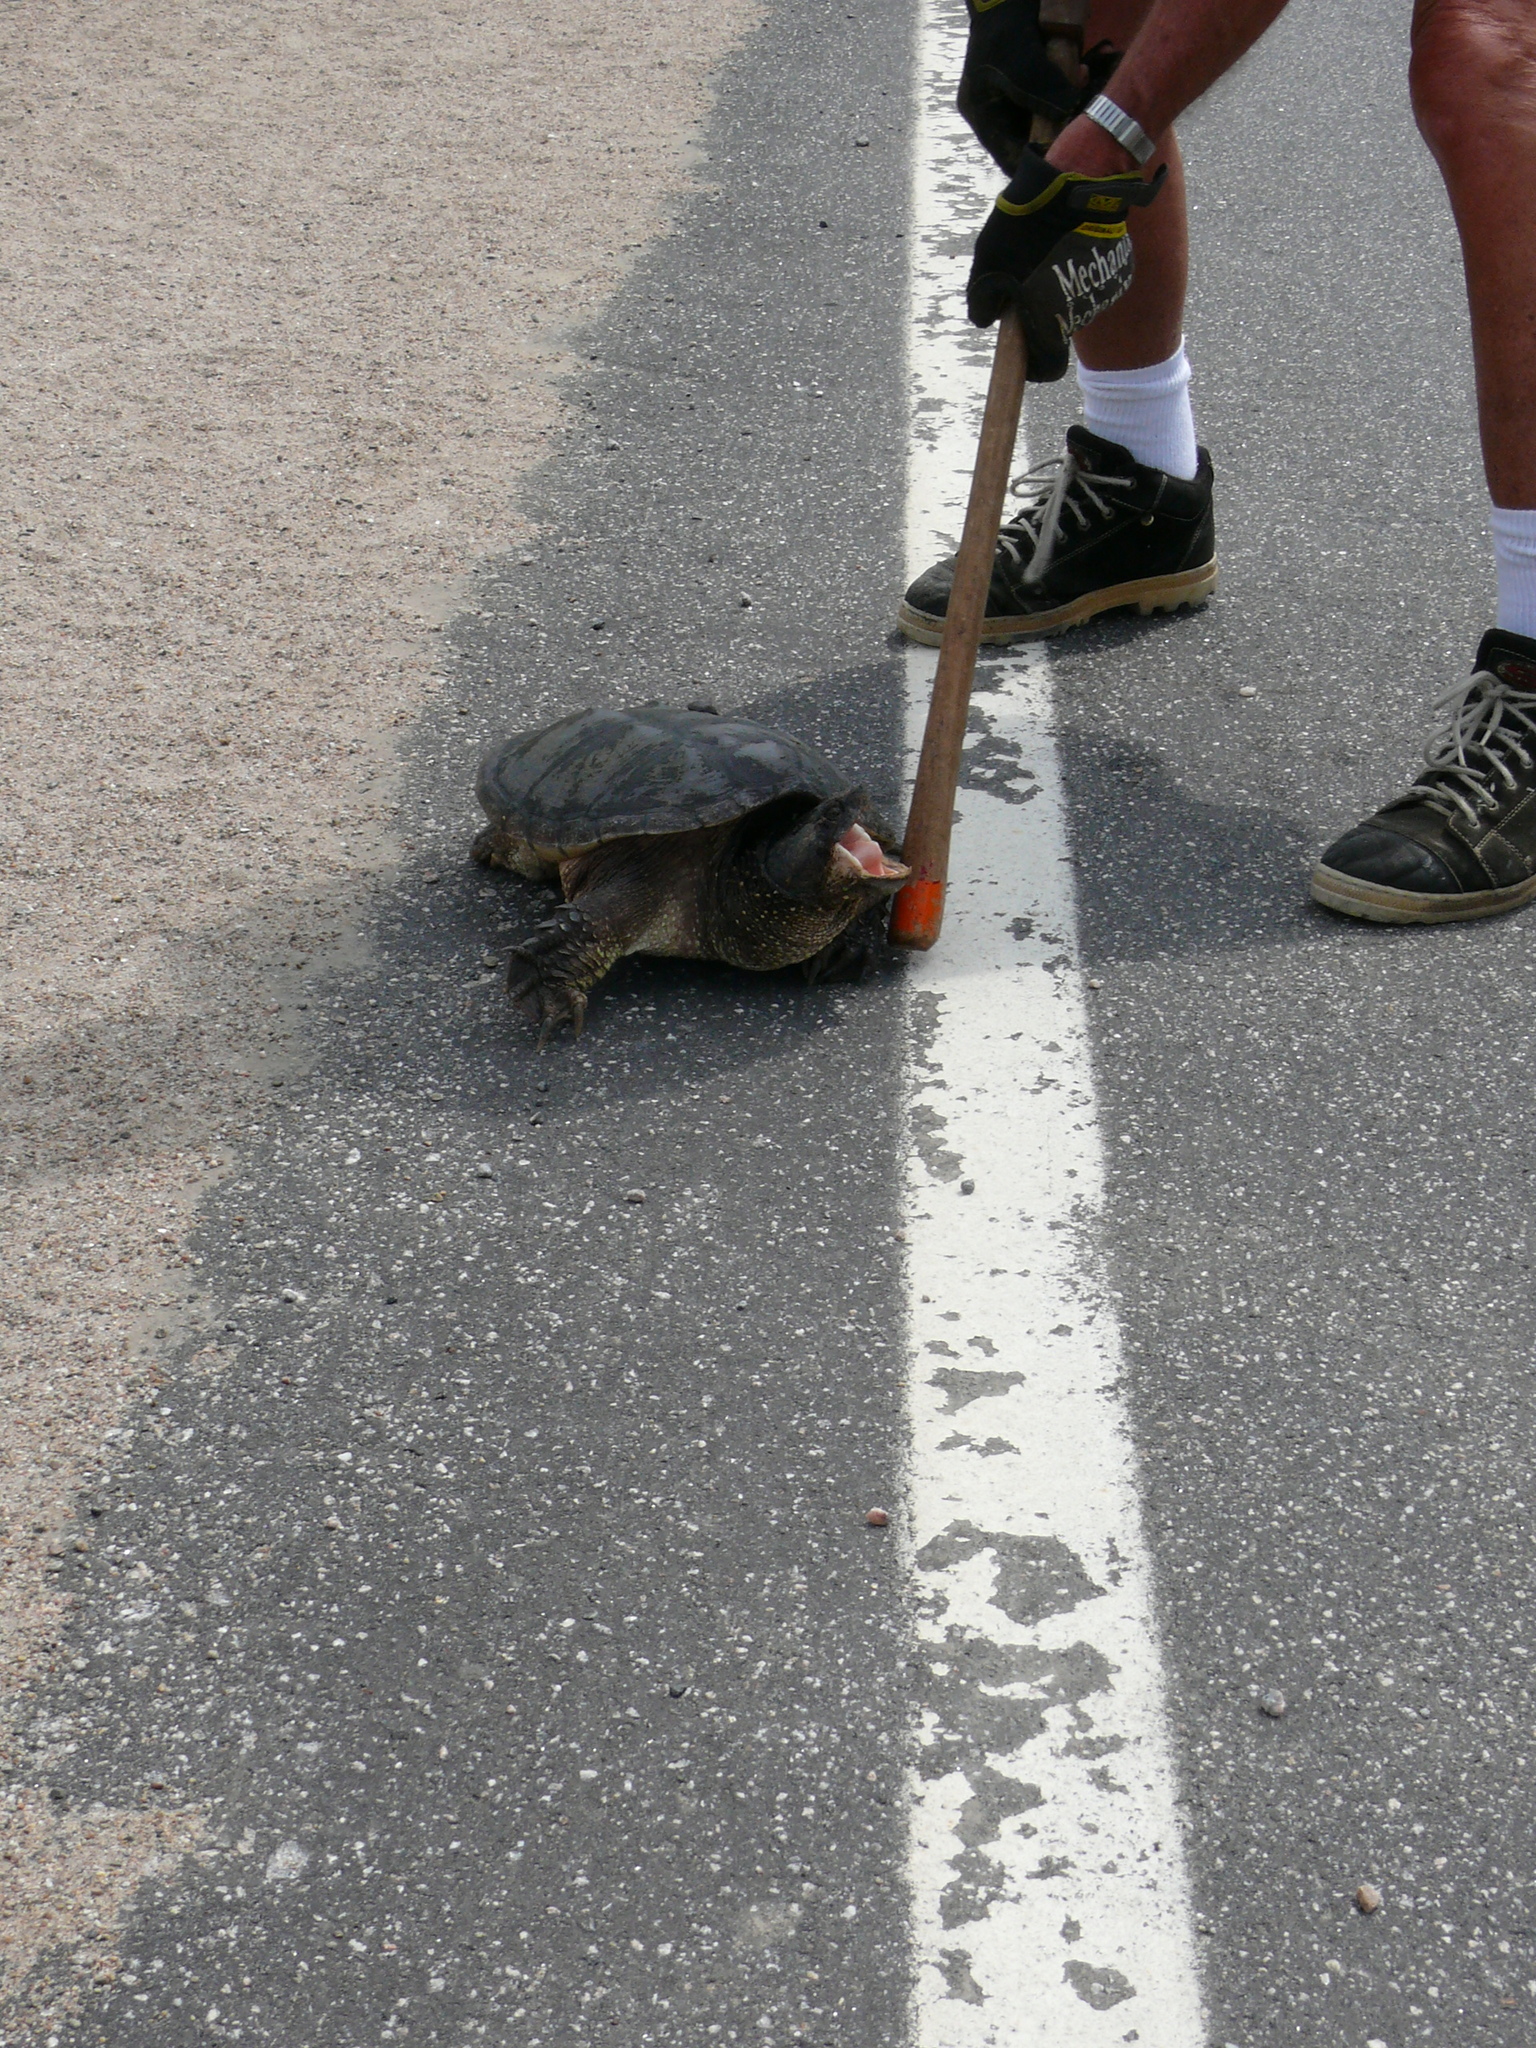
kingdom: Animalia
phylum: Chordata
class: Testudines
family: Chelydridae
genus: Chelydra
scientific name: Chelydra serpentina
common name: Common snapping turtle
